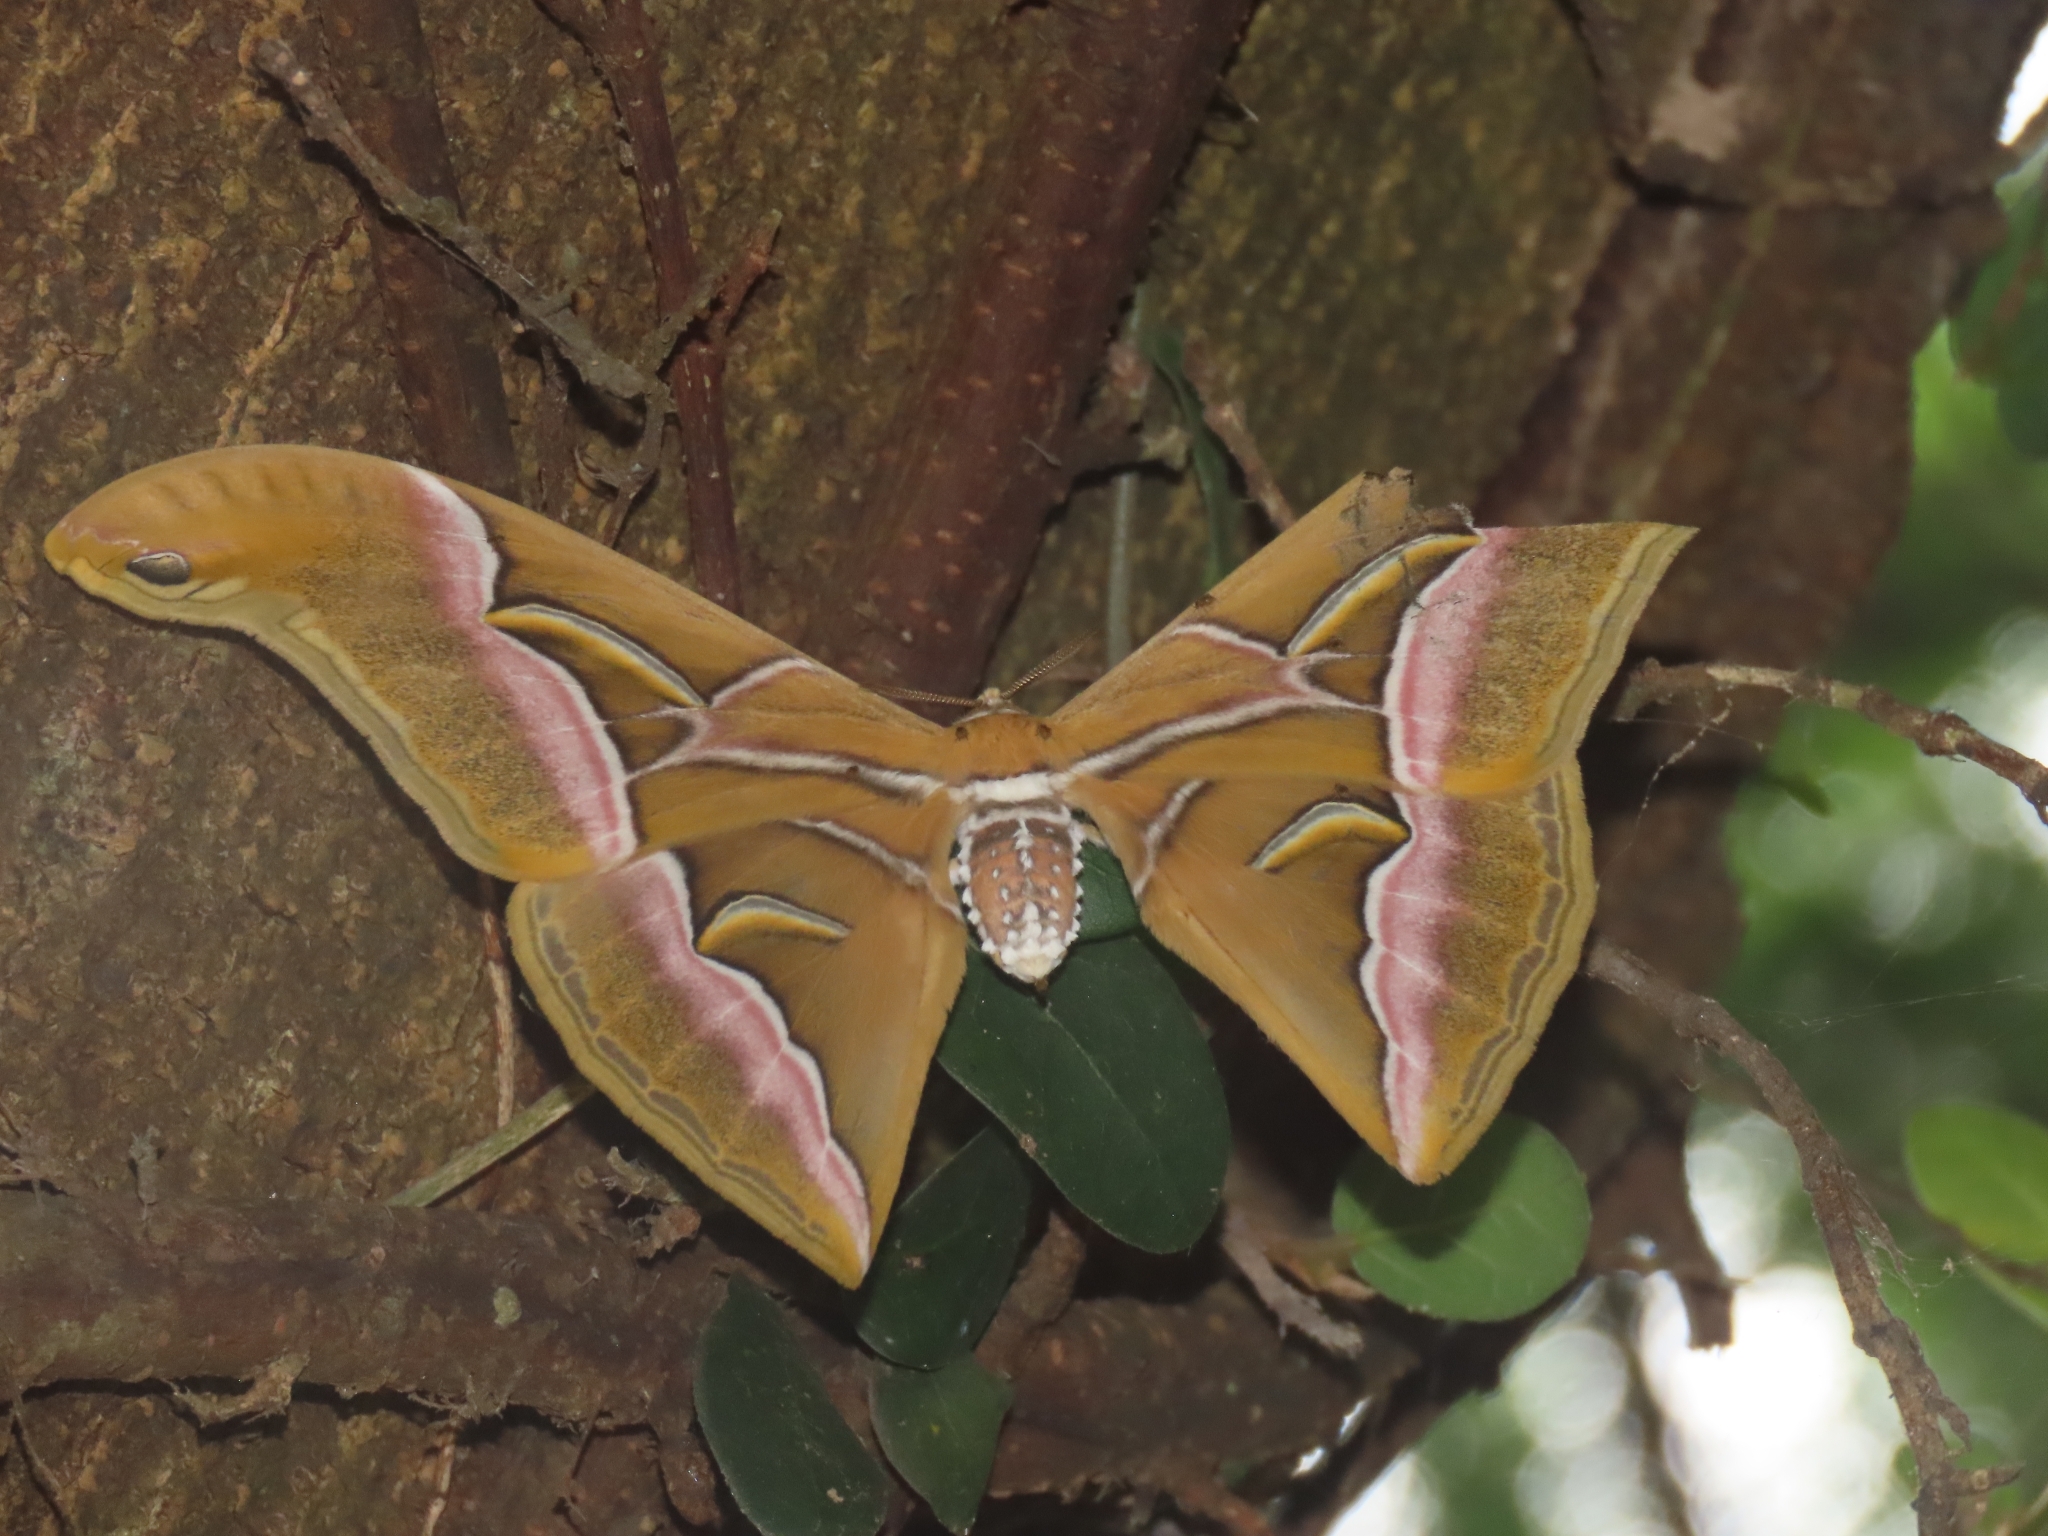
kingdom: Animalia
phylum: Arthropoda
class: Insecta
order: Lepidoptera
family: Saturniidae
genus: Samia
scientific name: Samia wangi
